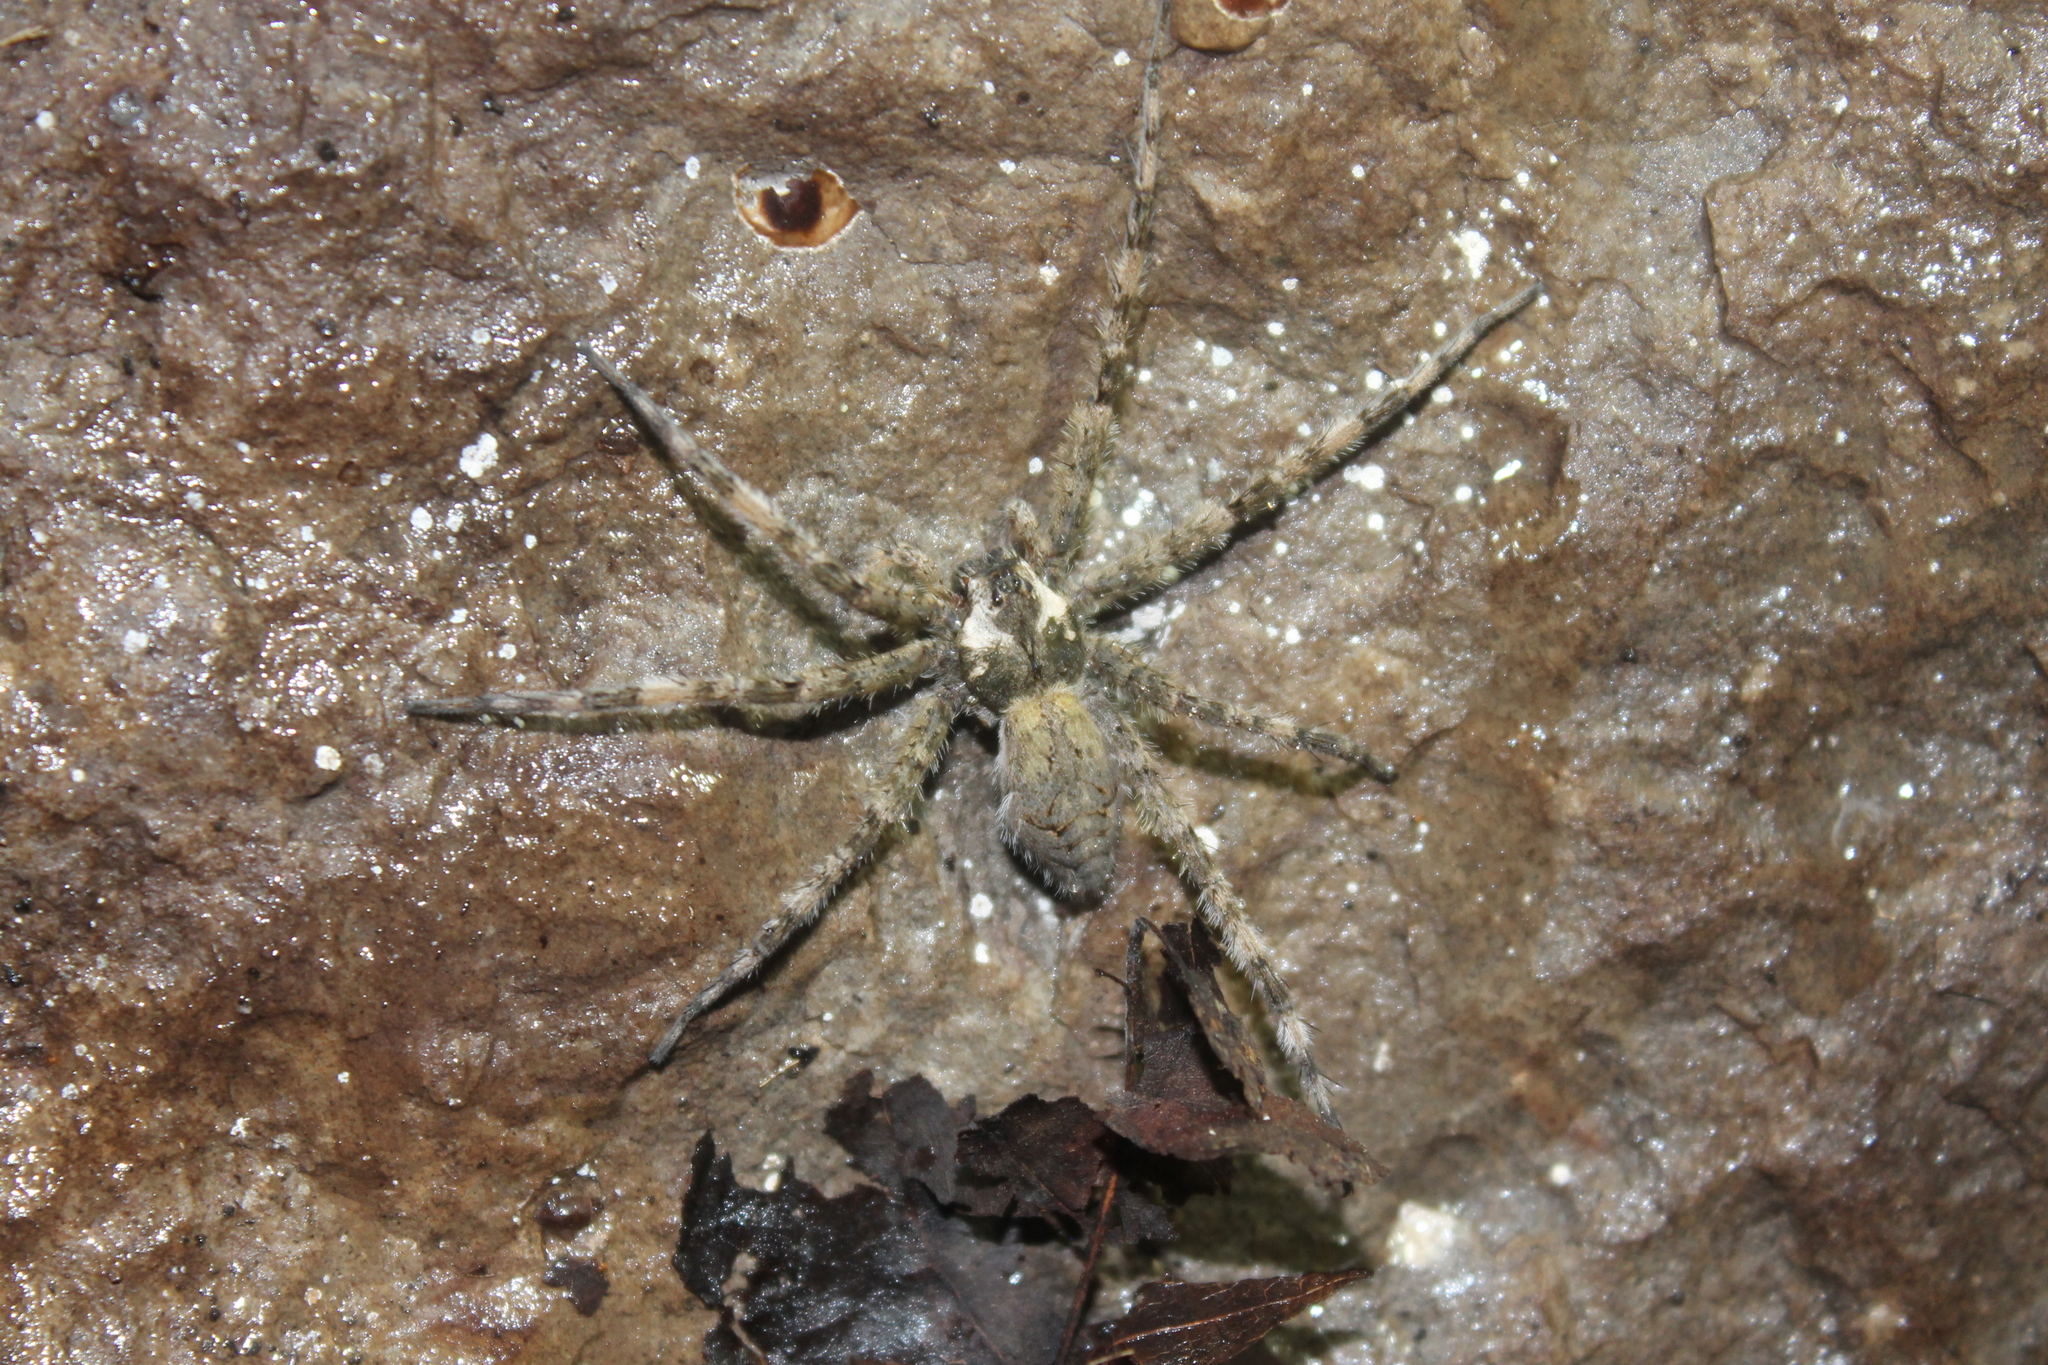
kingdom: Animalia
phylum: Arthropoda
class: Arachnida
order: Araneae
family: Pisauridae
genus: Dolomedes
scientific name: Dolomedes albineus
